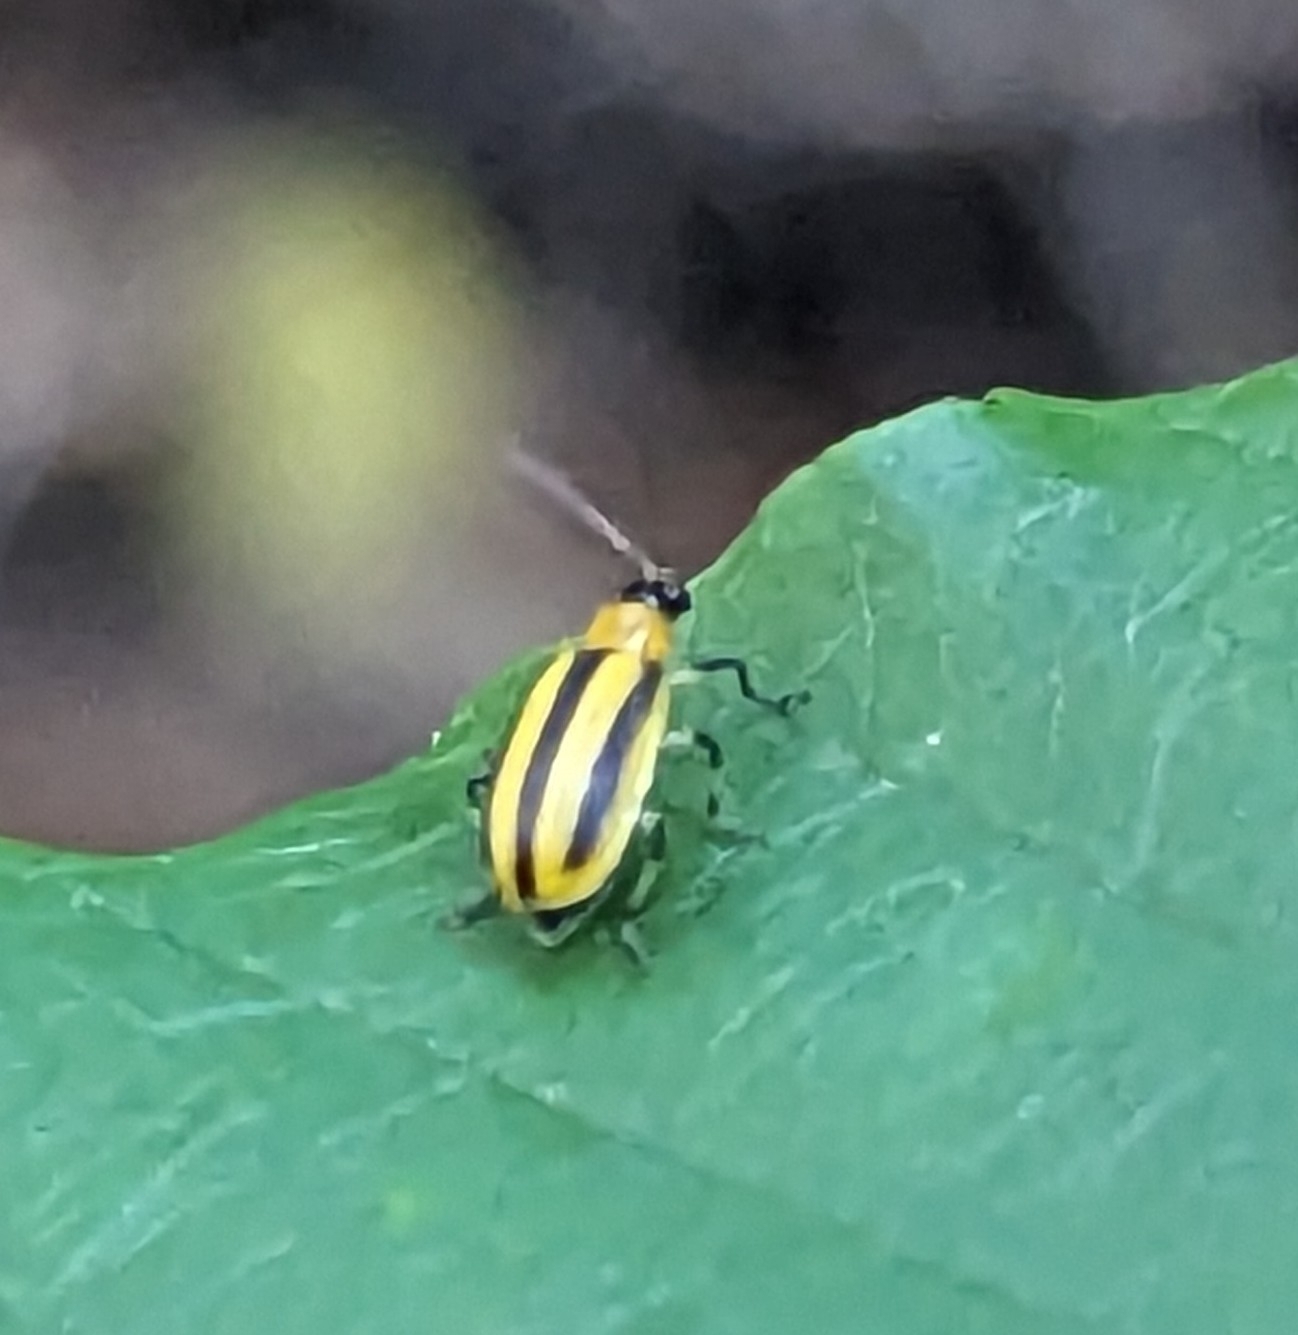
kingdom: Animalia
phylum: Arthropoda
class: Insecta
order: Coleoptera
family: Chrysomelidae
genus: Acalymma
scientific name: Acalymma vittatum
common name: Striped cucumber beetle
